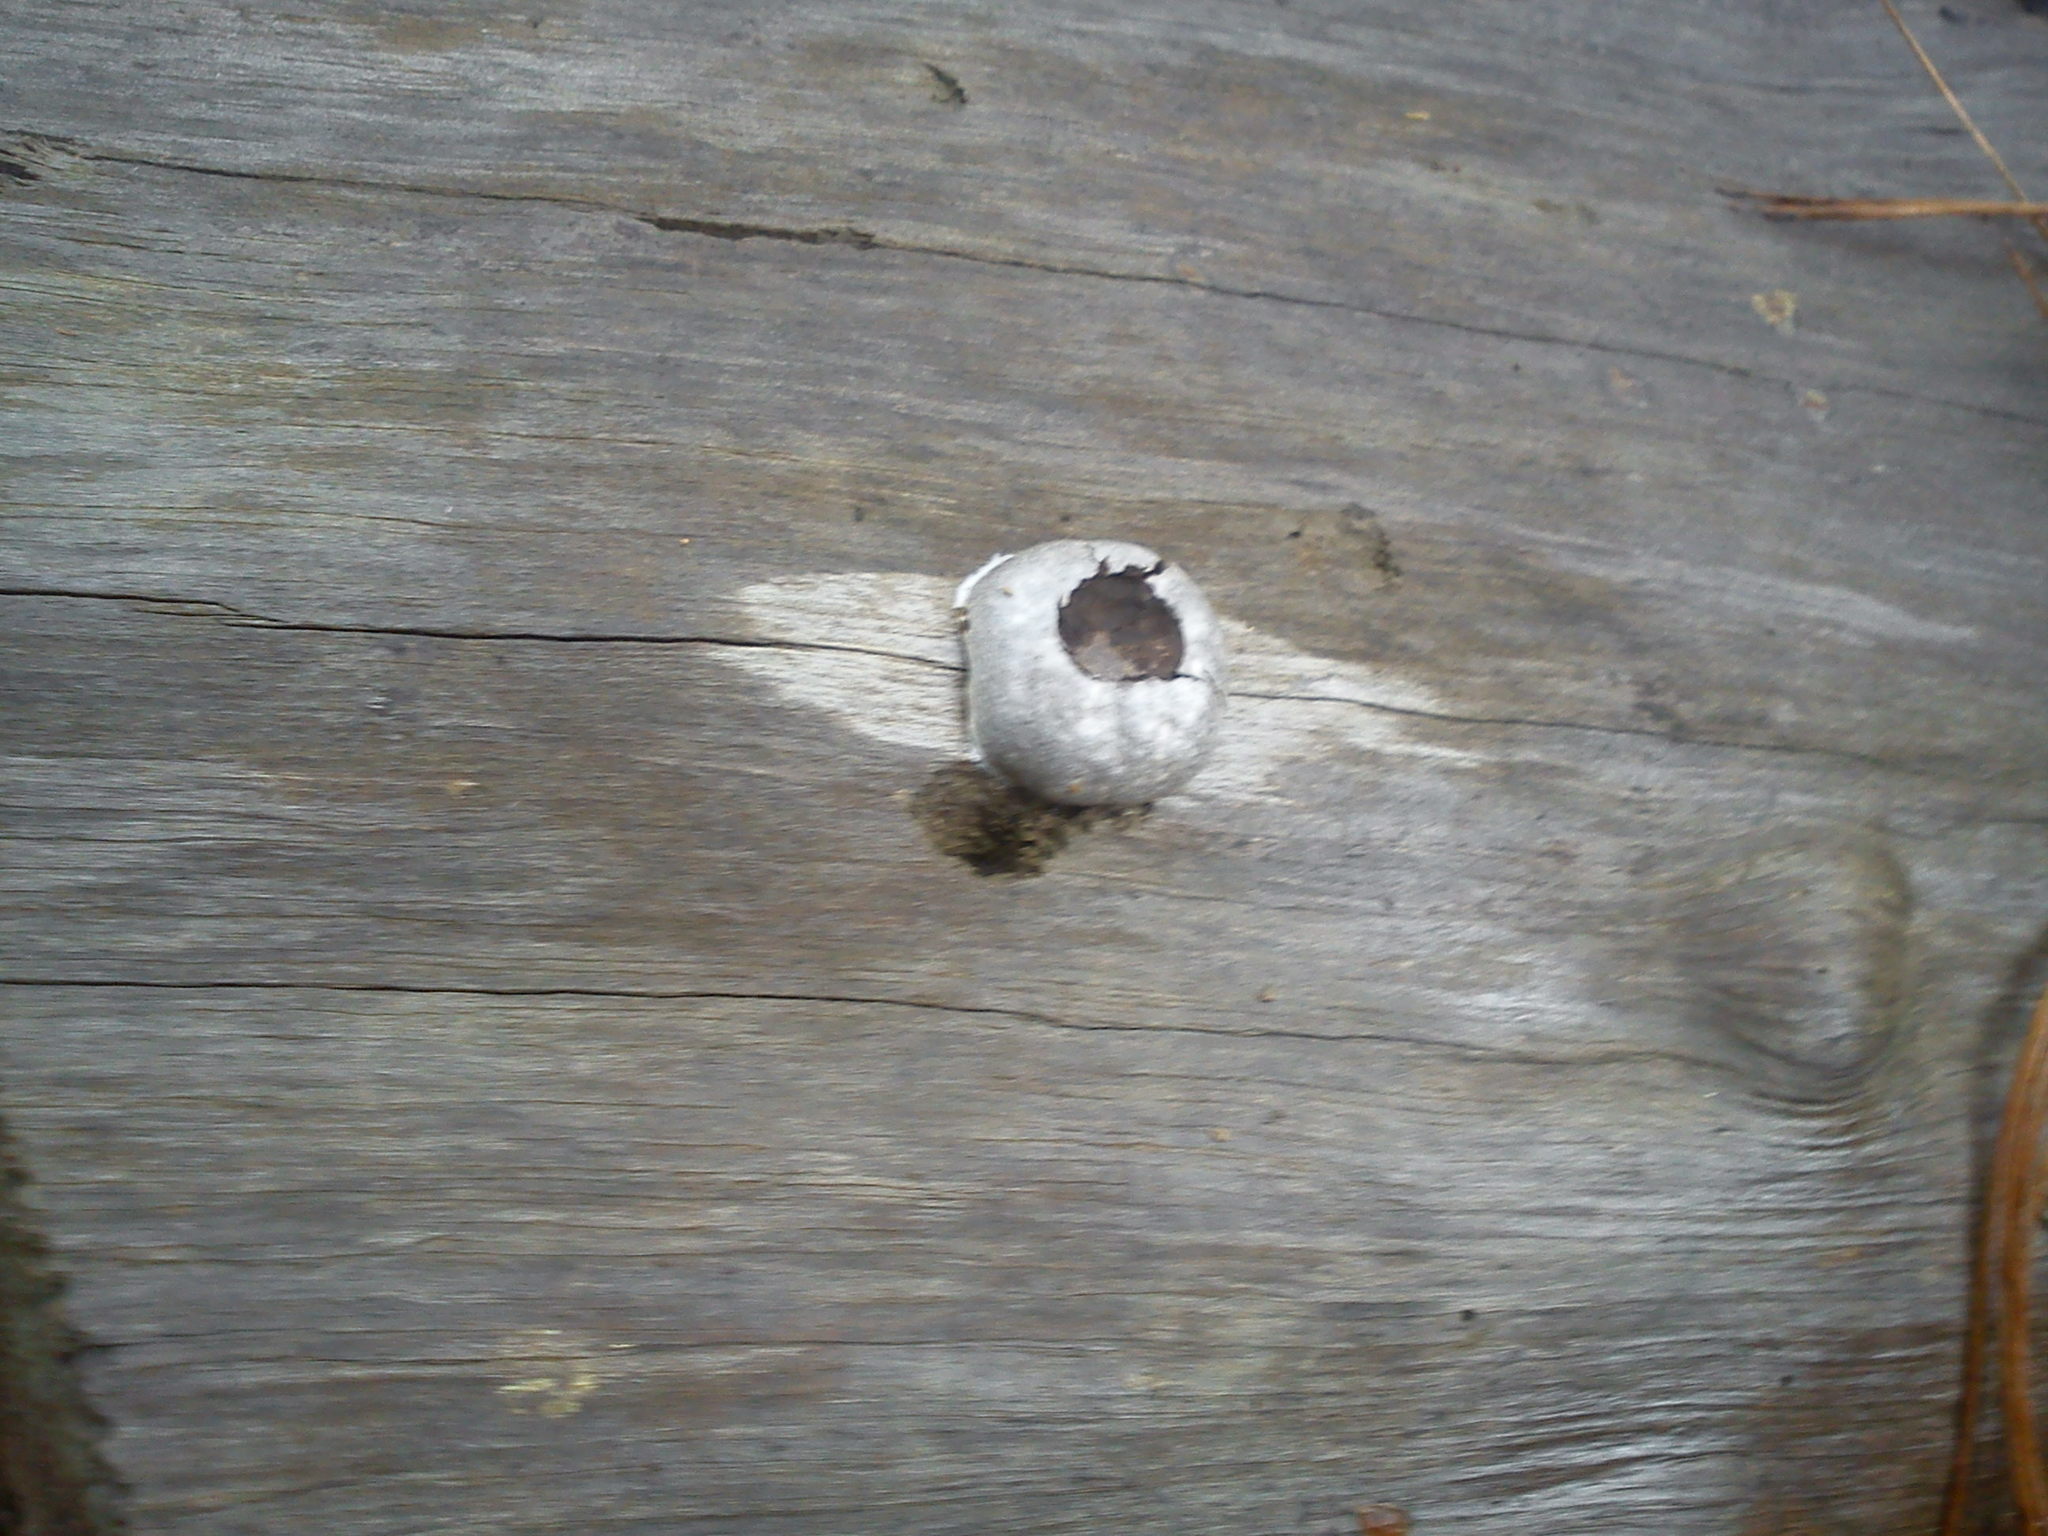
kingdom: Protozoa
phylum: Mycetozoa
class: Myxomycetes
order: Cribrariales
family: Tubiferaceae
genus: Reticularia
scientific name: Reticularia lycoperdon
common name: False puffball
